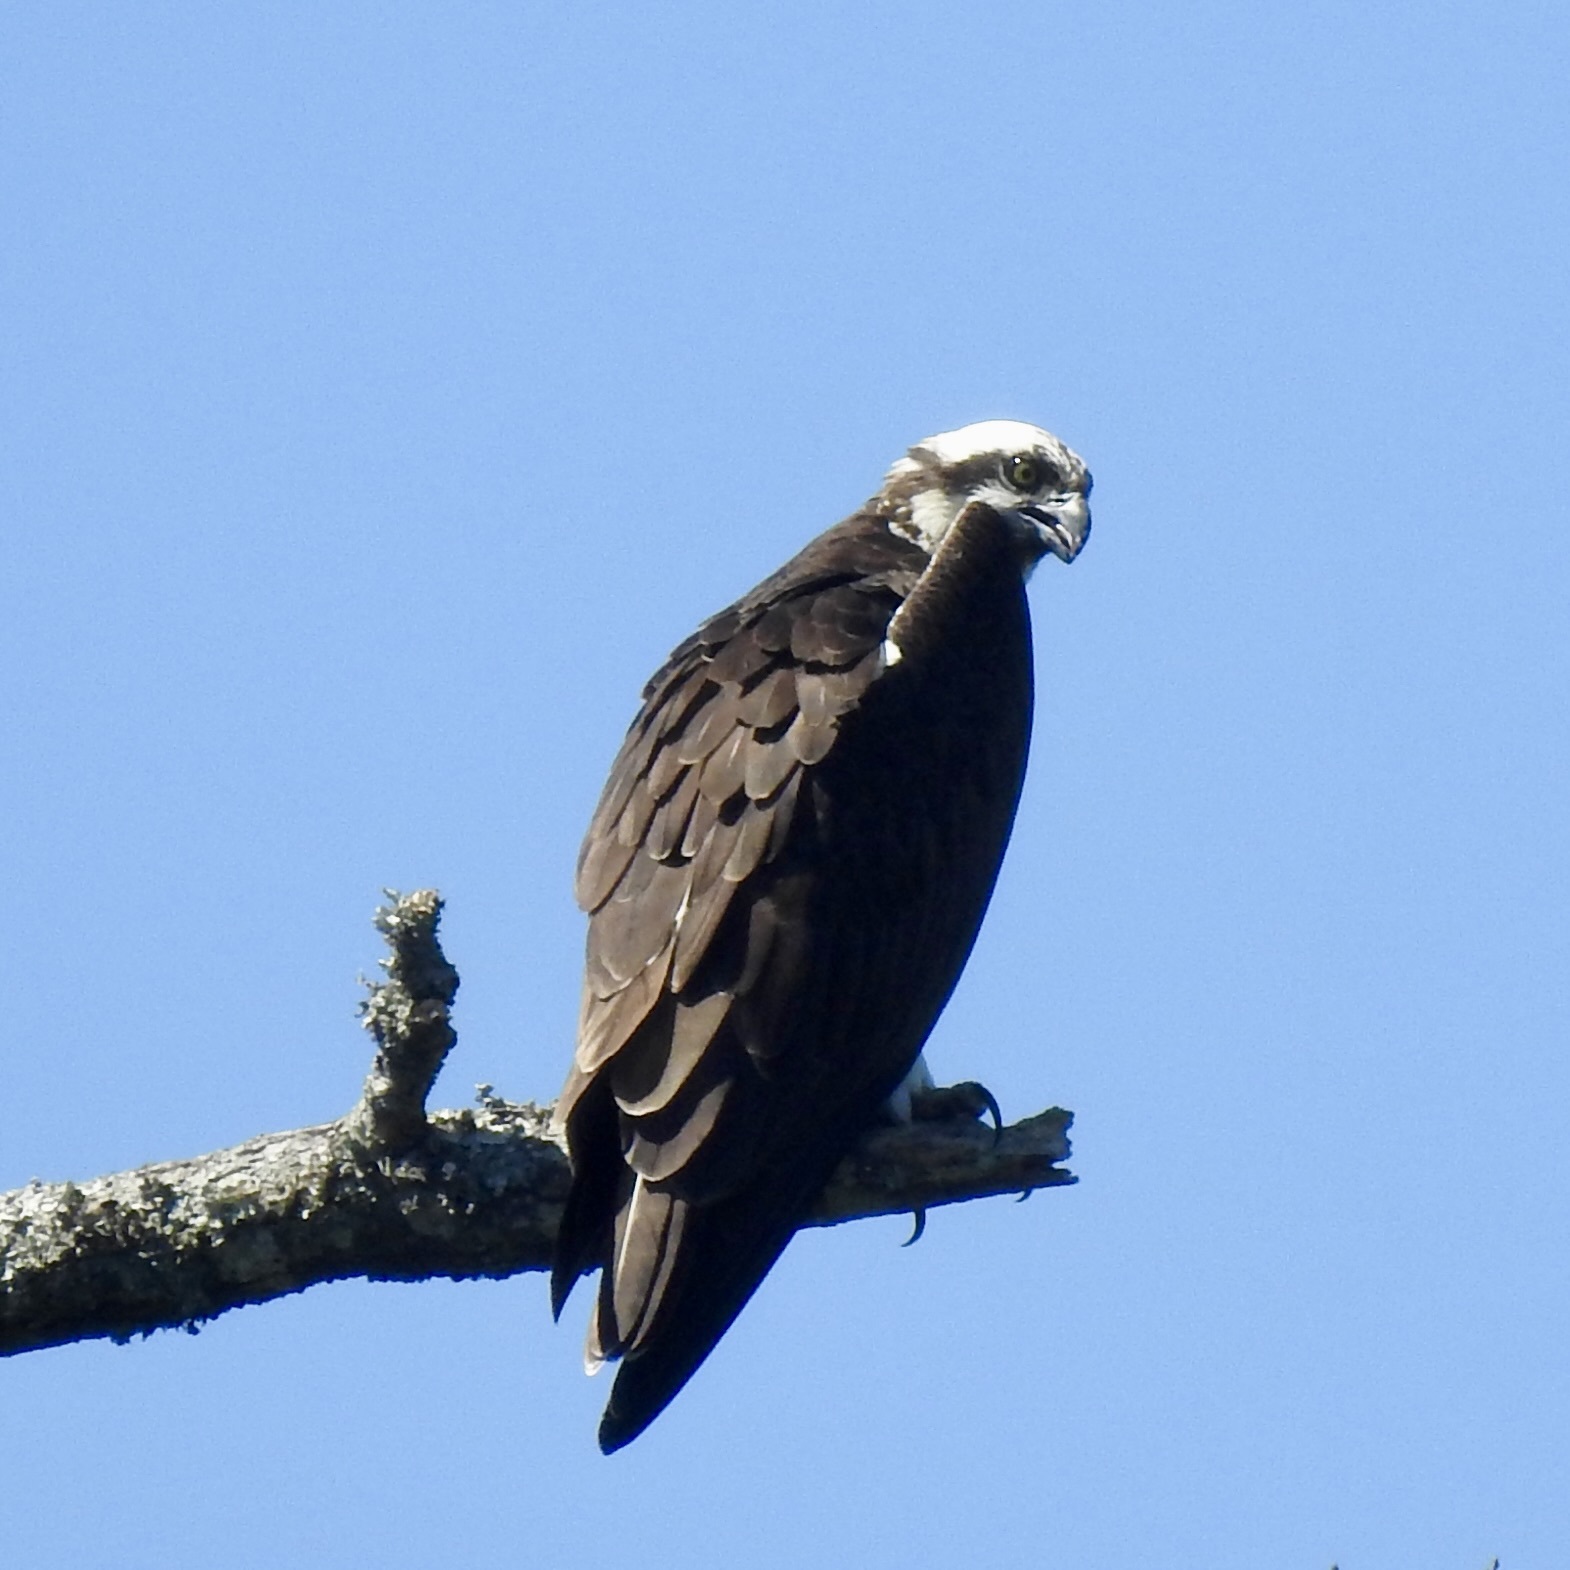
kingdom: Animalia
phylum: Chordata
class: Aves
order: Accipitriformes
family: Pandionidae
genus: Pandion
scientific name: Pandion haliaetus
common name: Osprey
